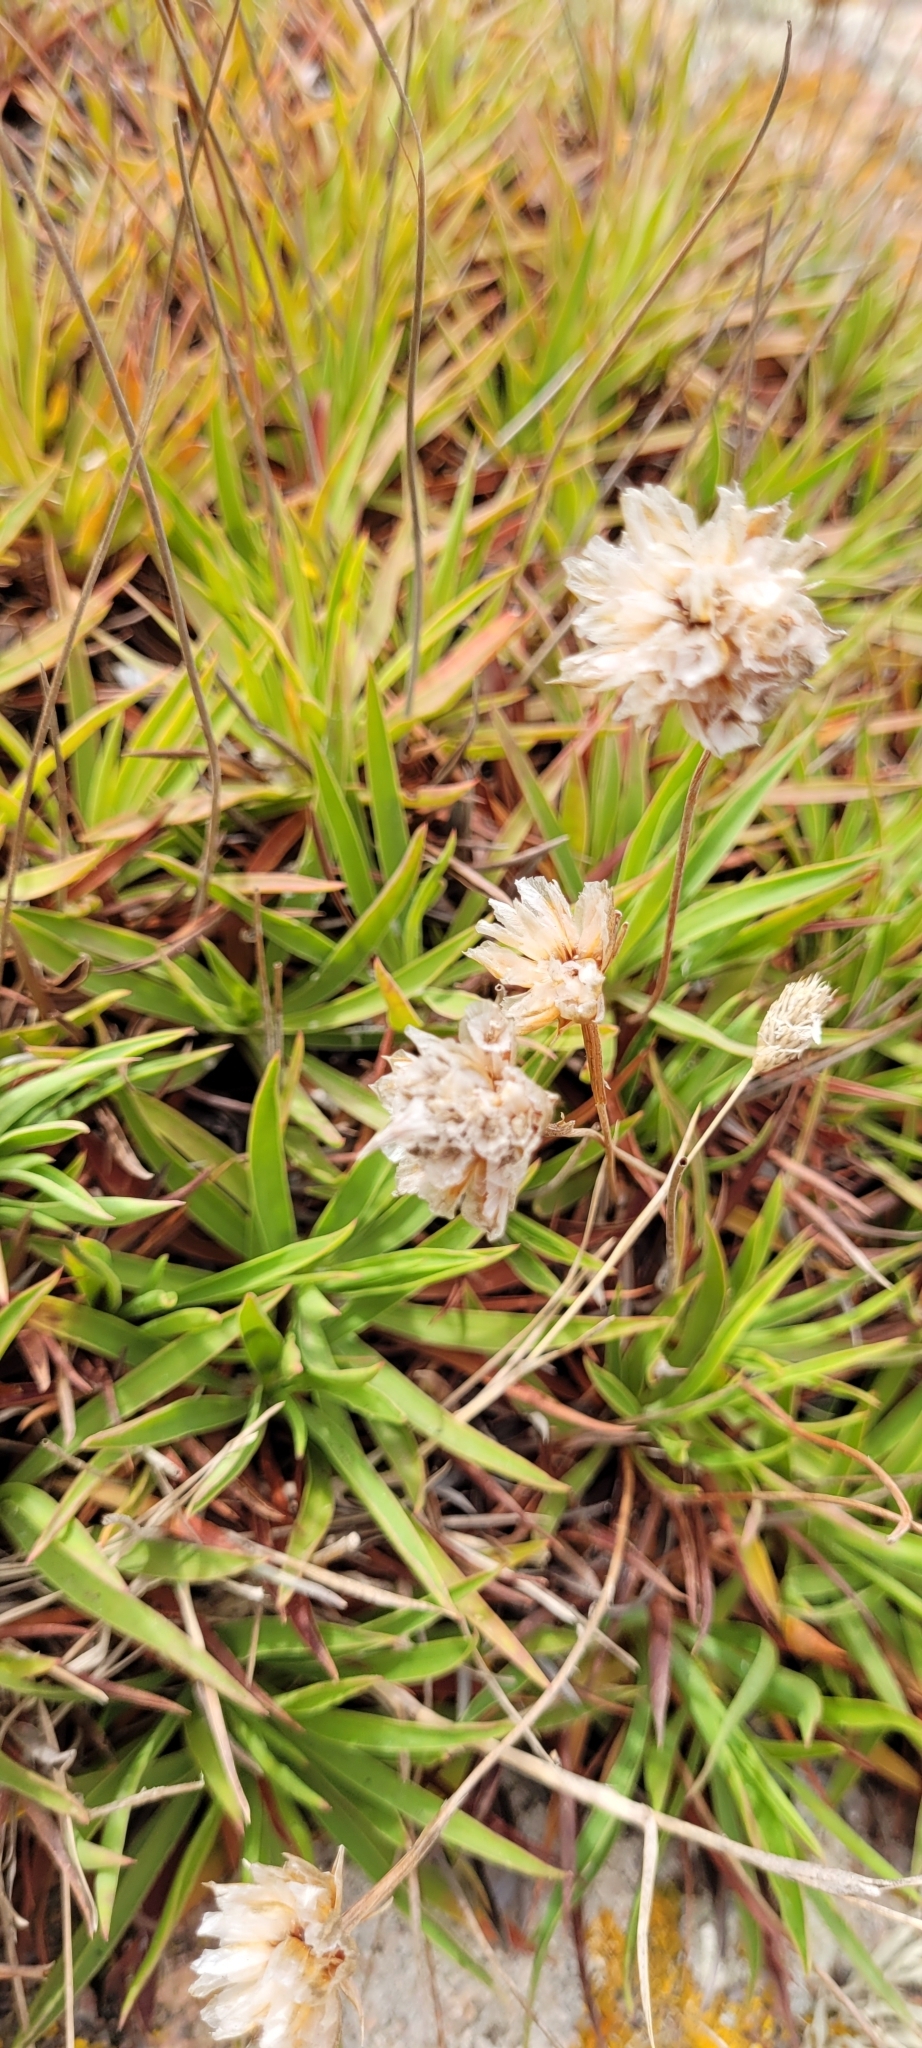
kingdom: Plantae
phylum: Tracheophyta
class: Magnoliopsida
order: Caryophyllales
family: Plumbaginaceae
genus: Armeria
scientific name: Armeria berlengensis
